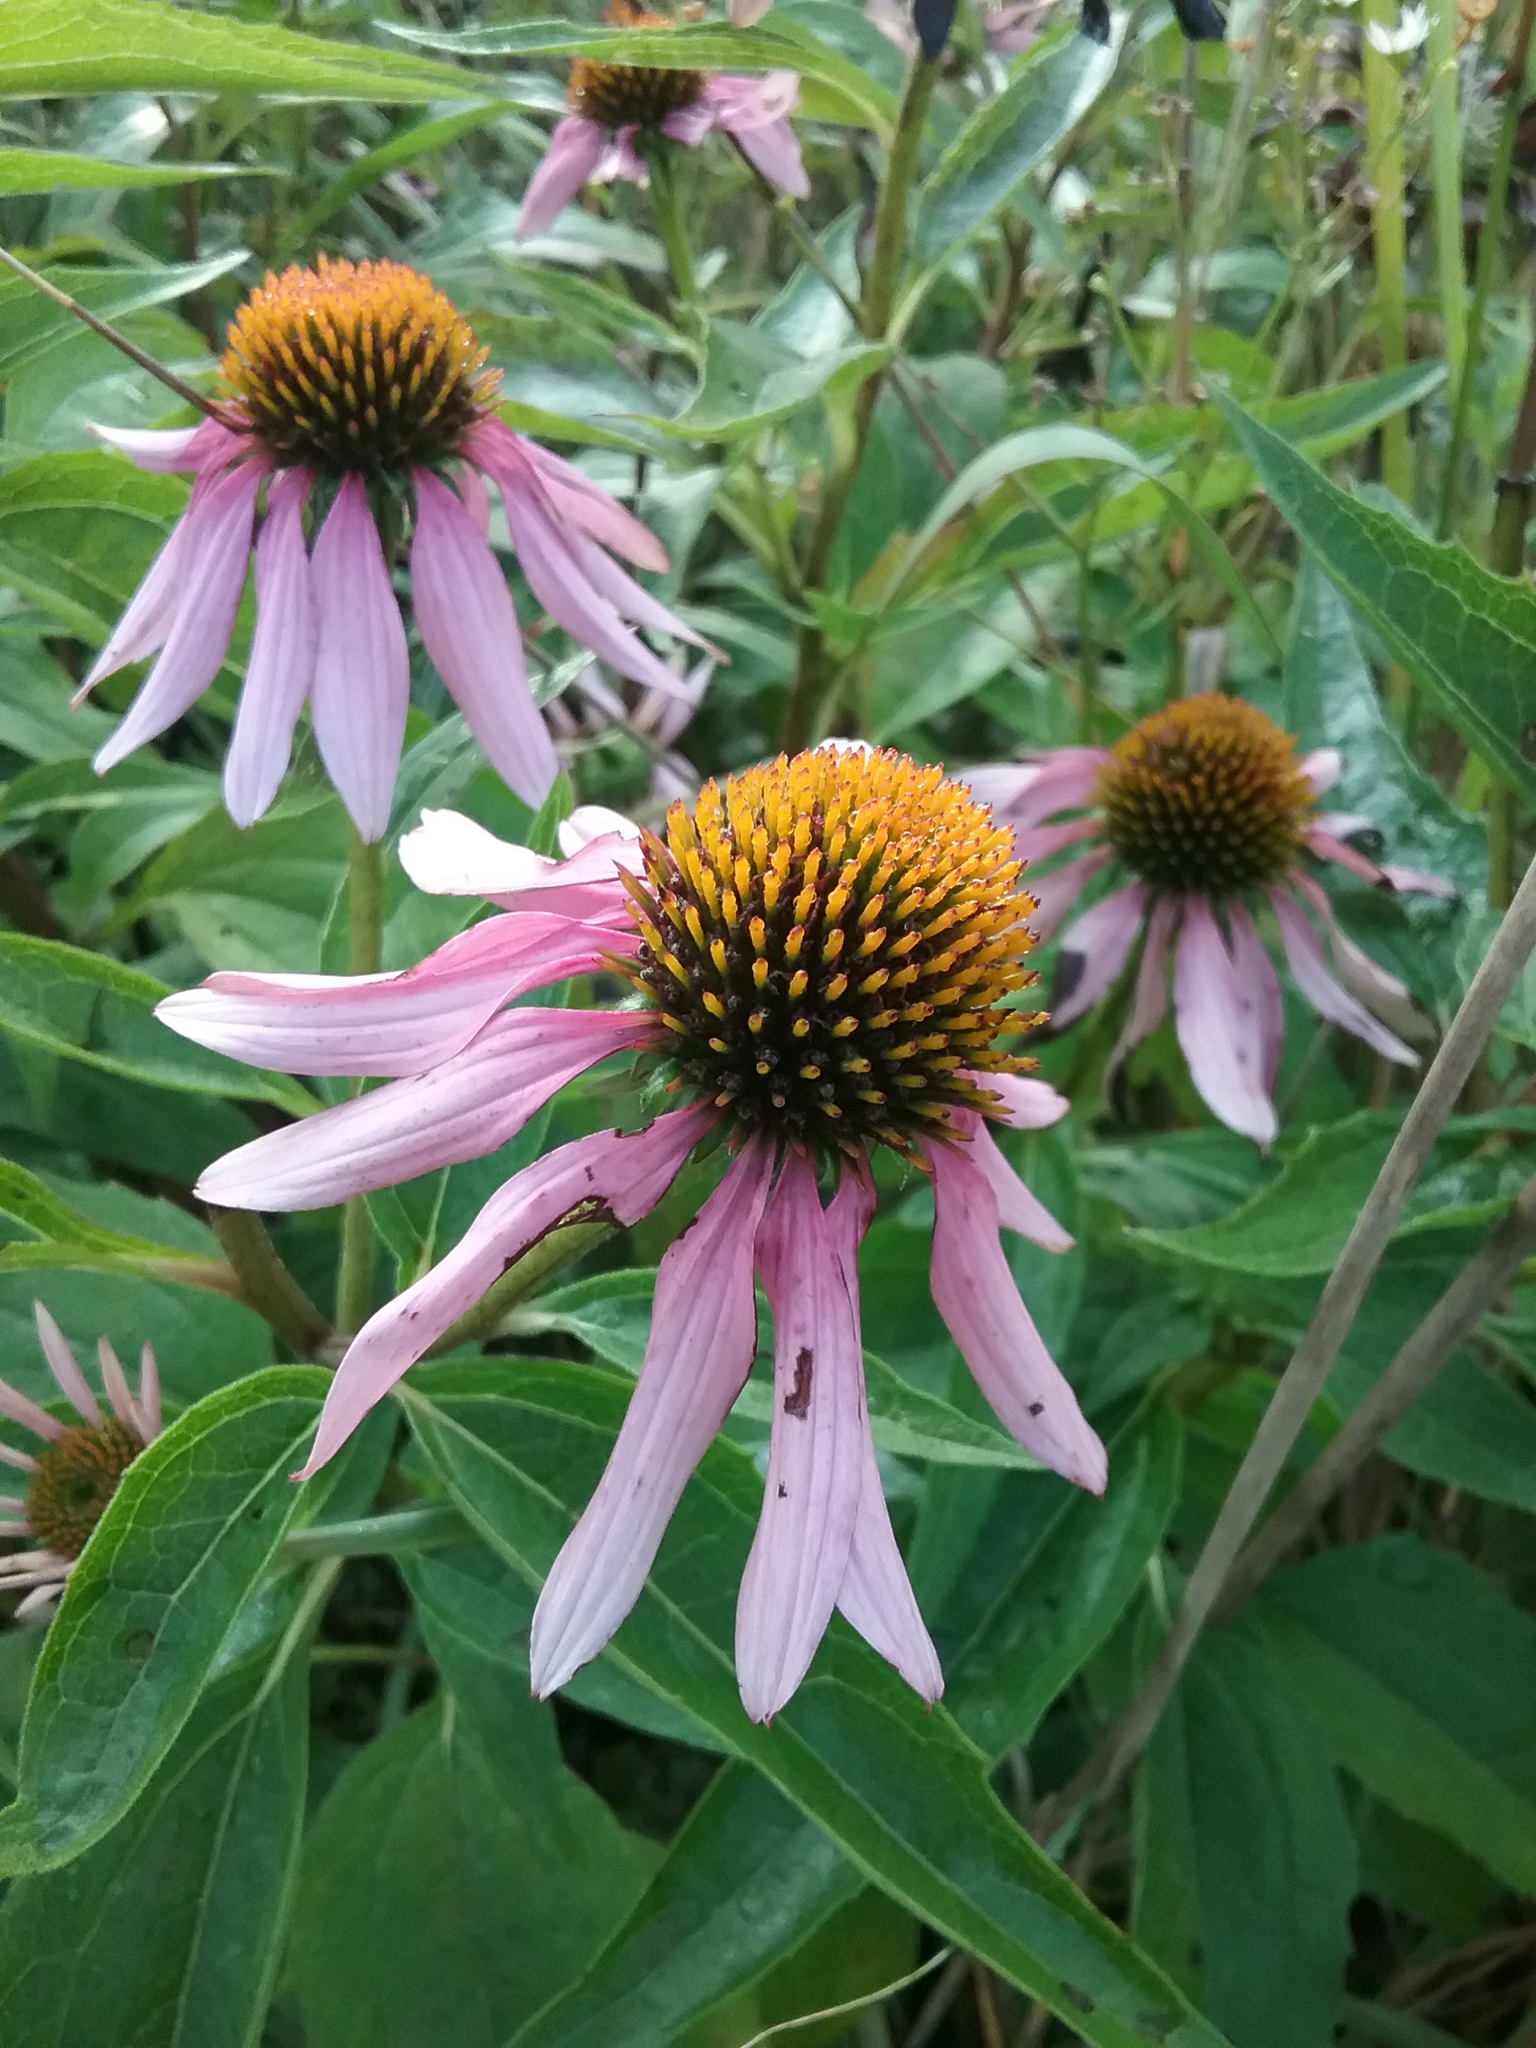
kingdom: Plantae
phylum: Tracheophyta
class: Magnoliopsida
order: Asterales
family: Asteraceae
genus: Echinacea
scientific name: Echinacea purpurea
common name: Broad-leaved purple coneflower
